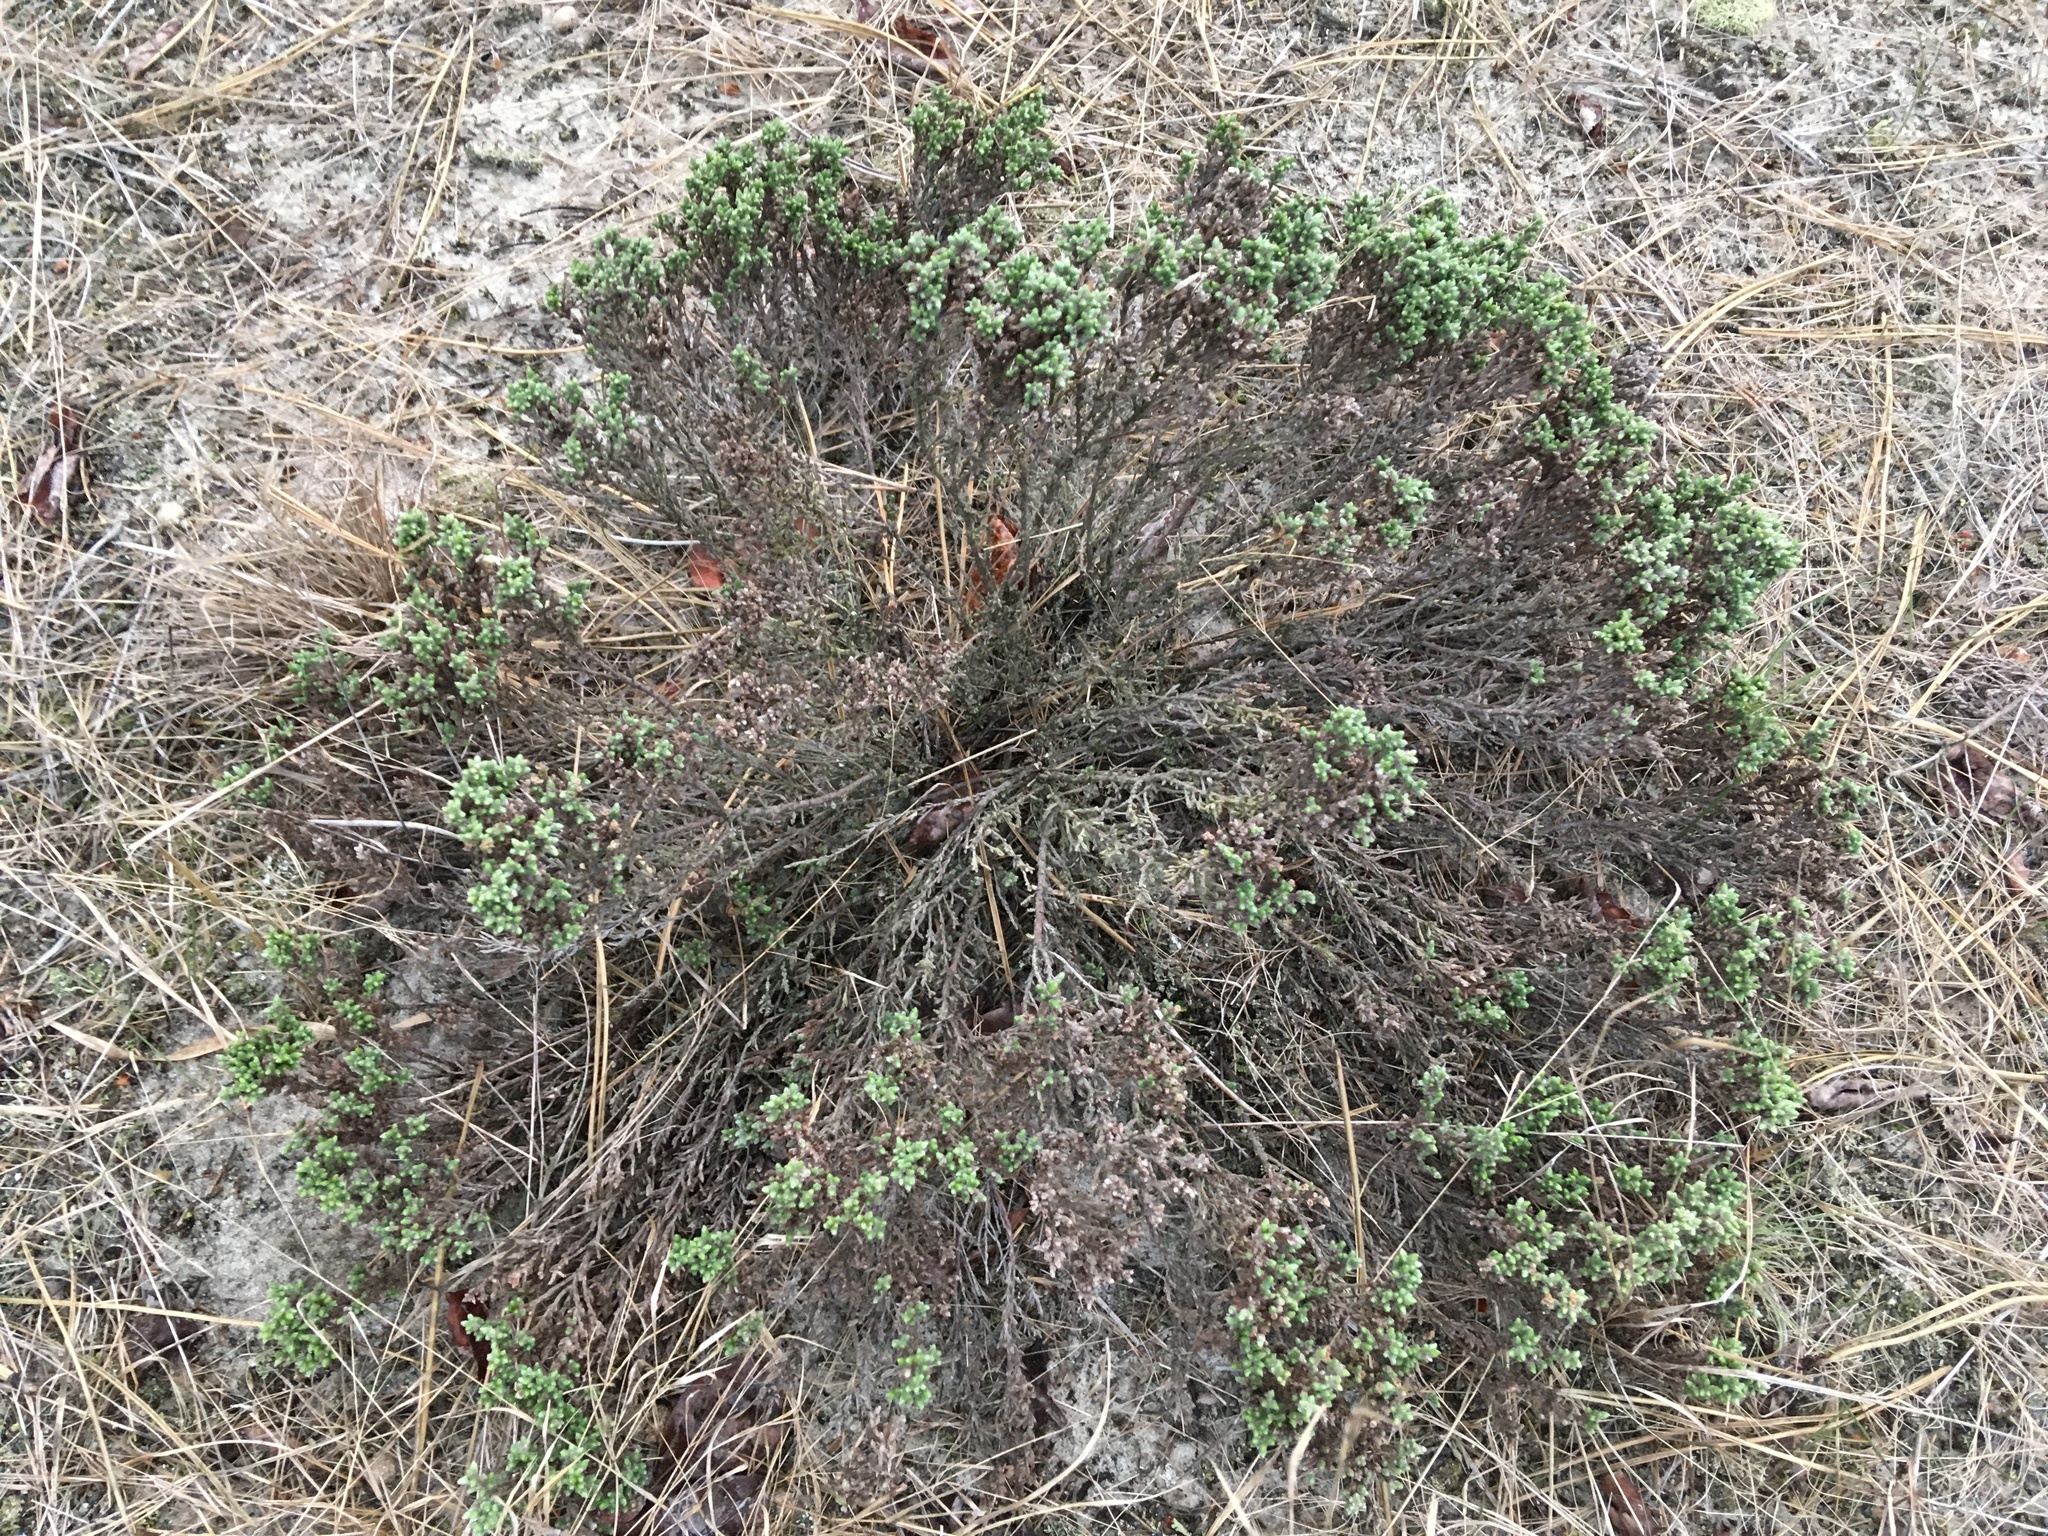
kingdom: Plantae
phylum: Tracheophyta
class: Magnoliopsida
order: Malvales
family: Cistaceae
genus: Hudsonia
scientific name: Hudsonia tomentosa
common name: Beach-heath
